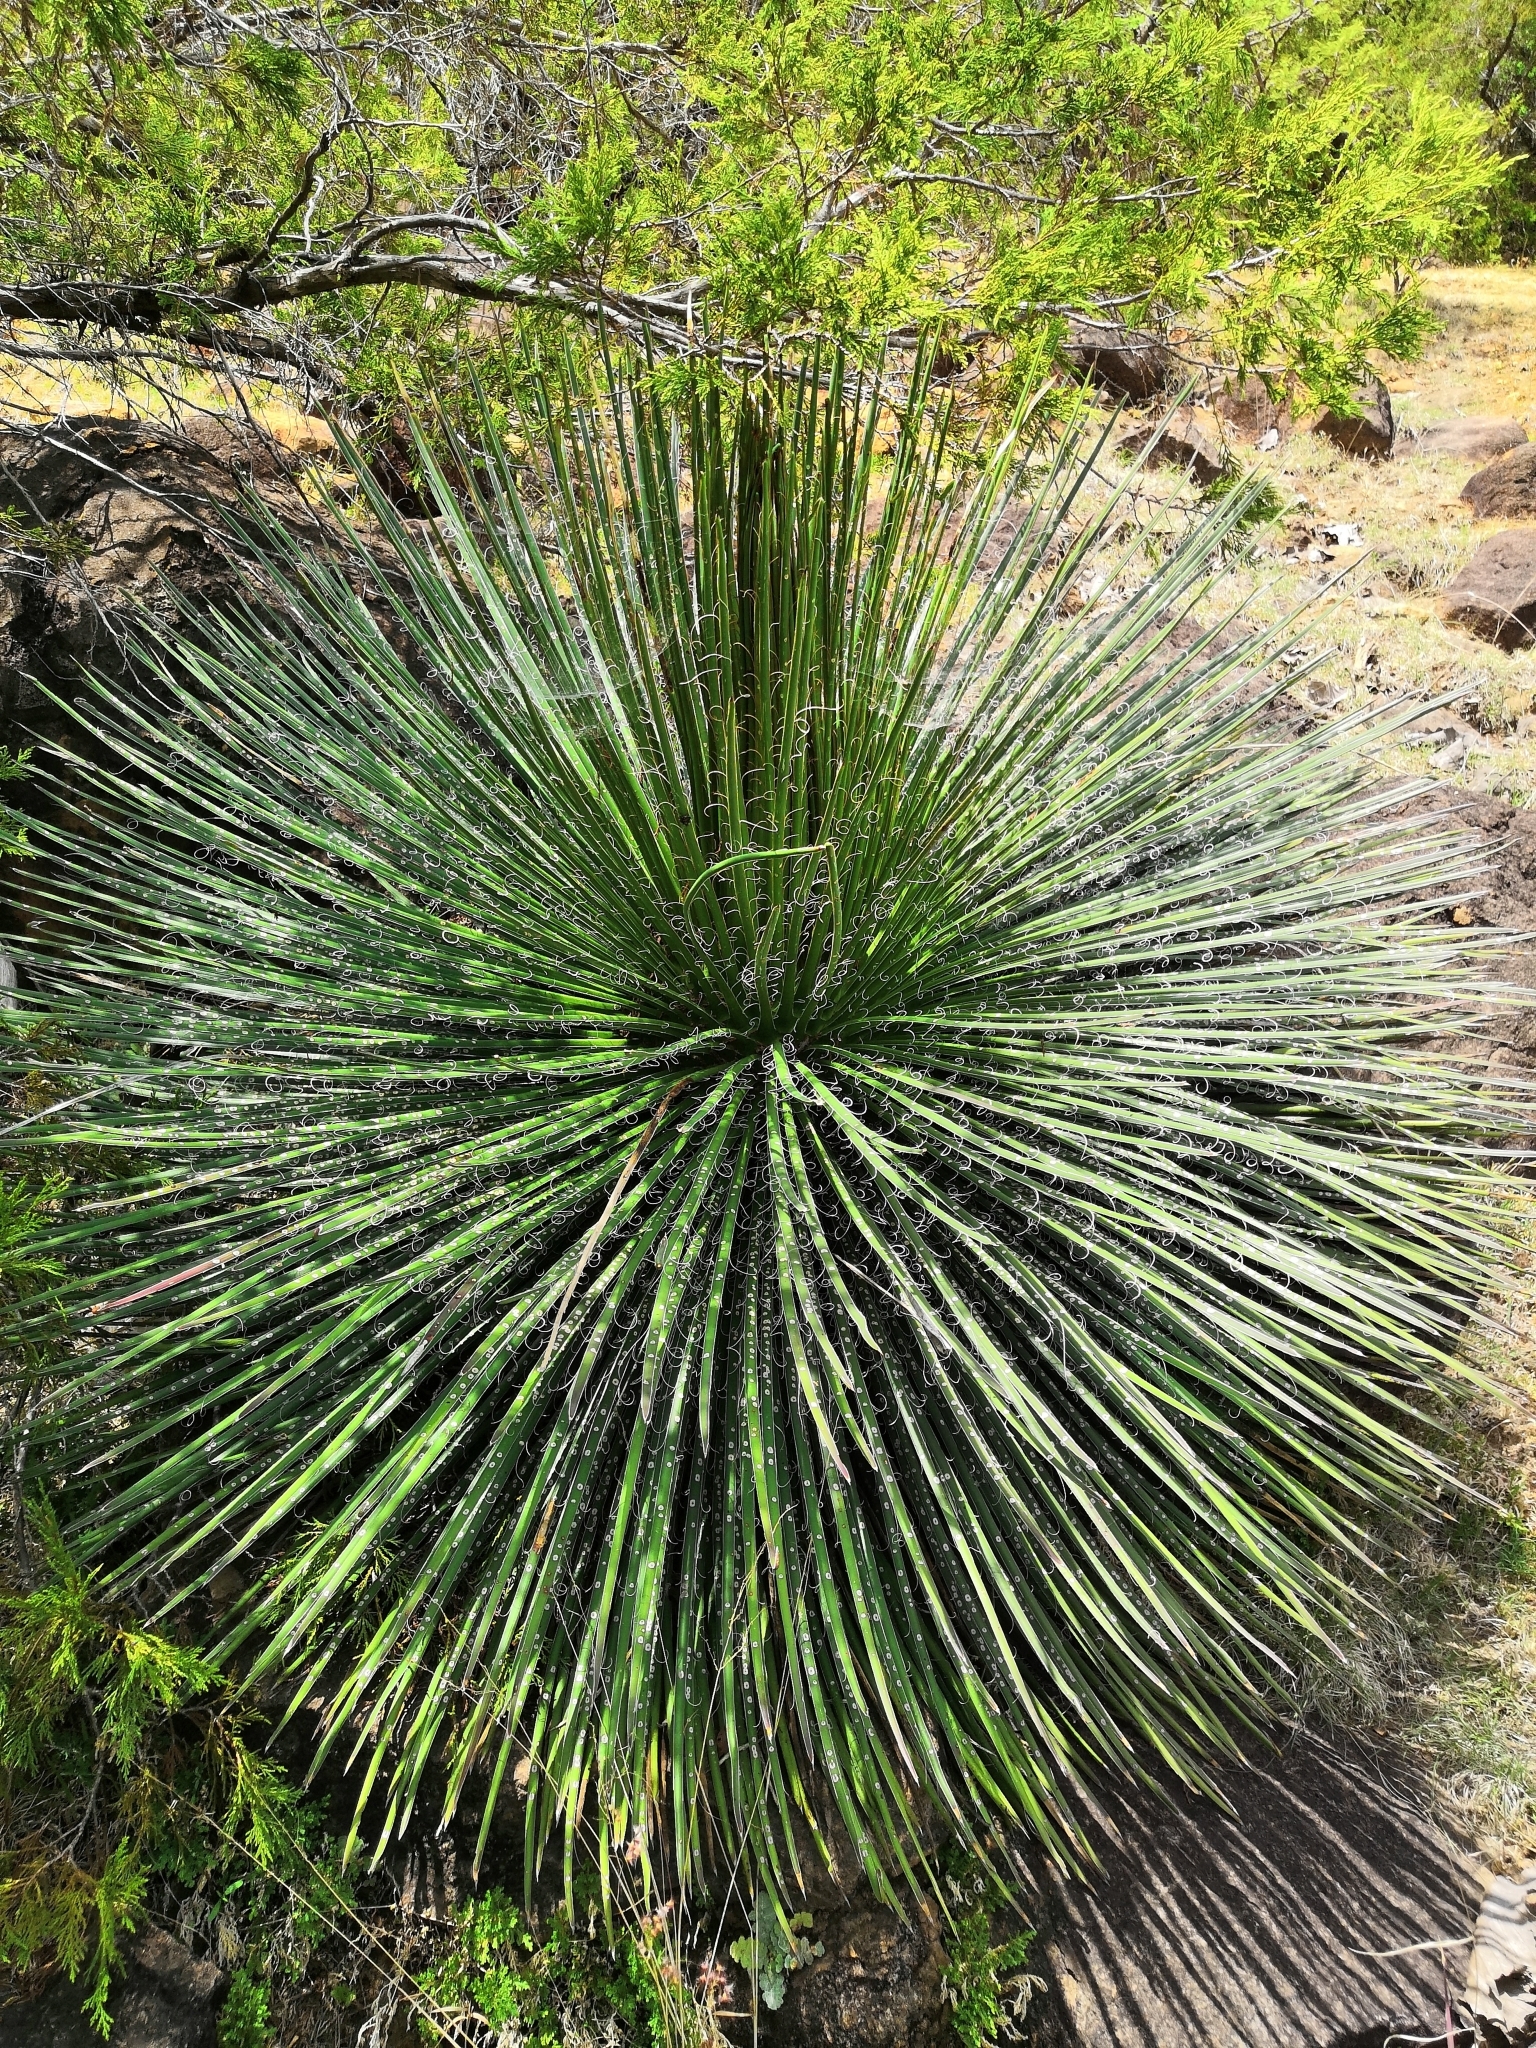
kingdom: Plantae
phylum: Tracheophyta
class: Liliopsida
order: Asparagales
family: Asparagaceae
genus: Agave
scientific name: Agave geminiflora
